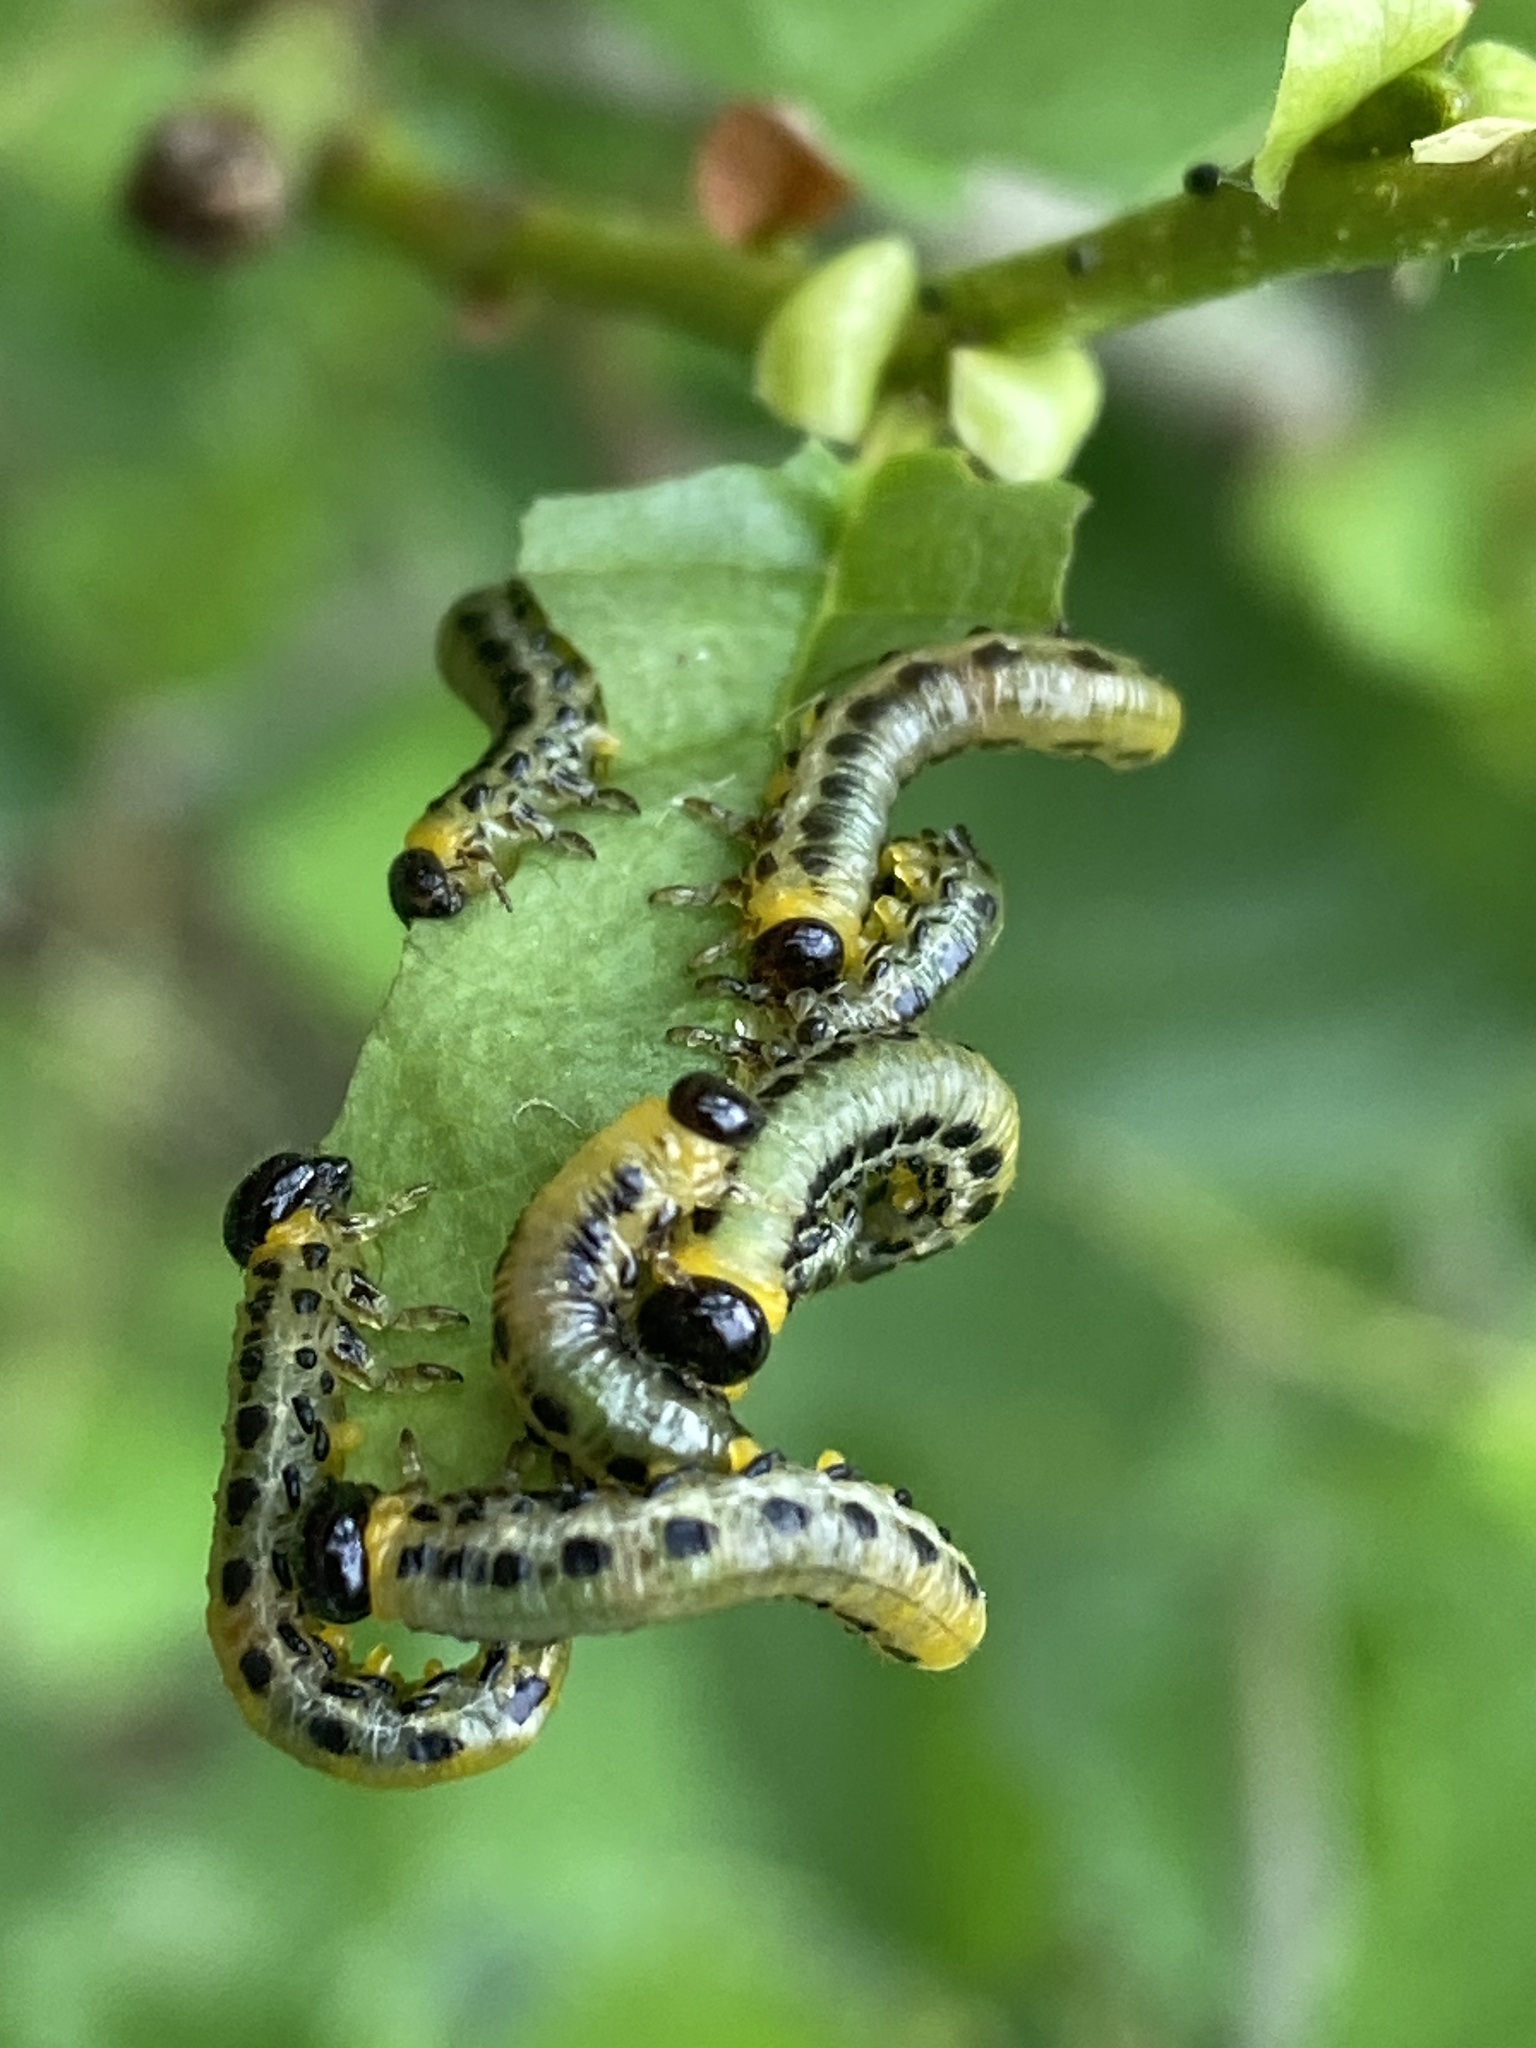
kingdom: Animalia
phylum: Arthropoda
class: Insecta
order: Hymenoptera
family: Tenthredinidae
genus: Craesus
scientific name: Craesus septentrionalis
